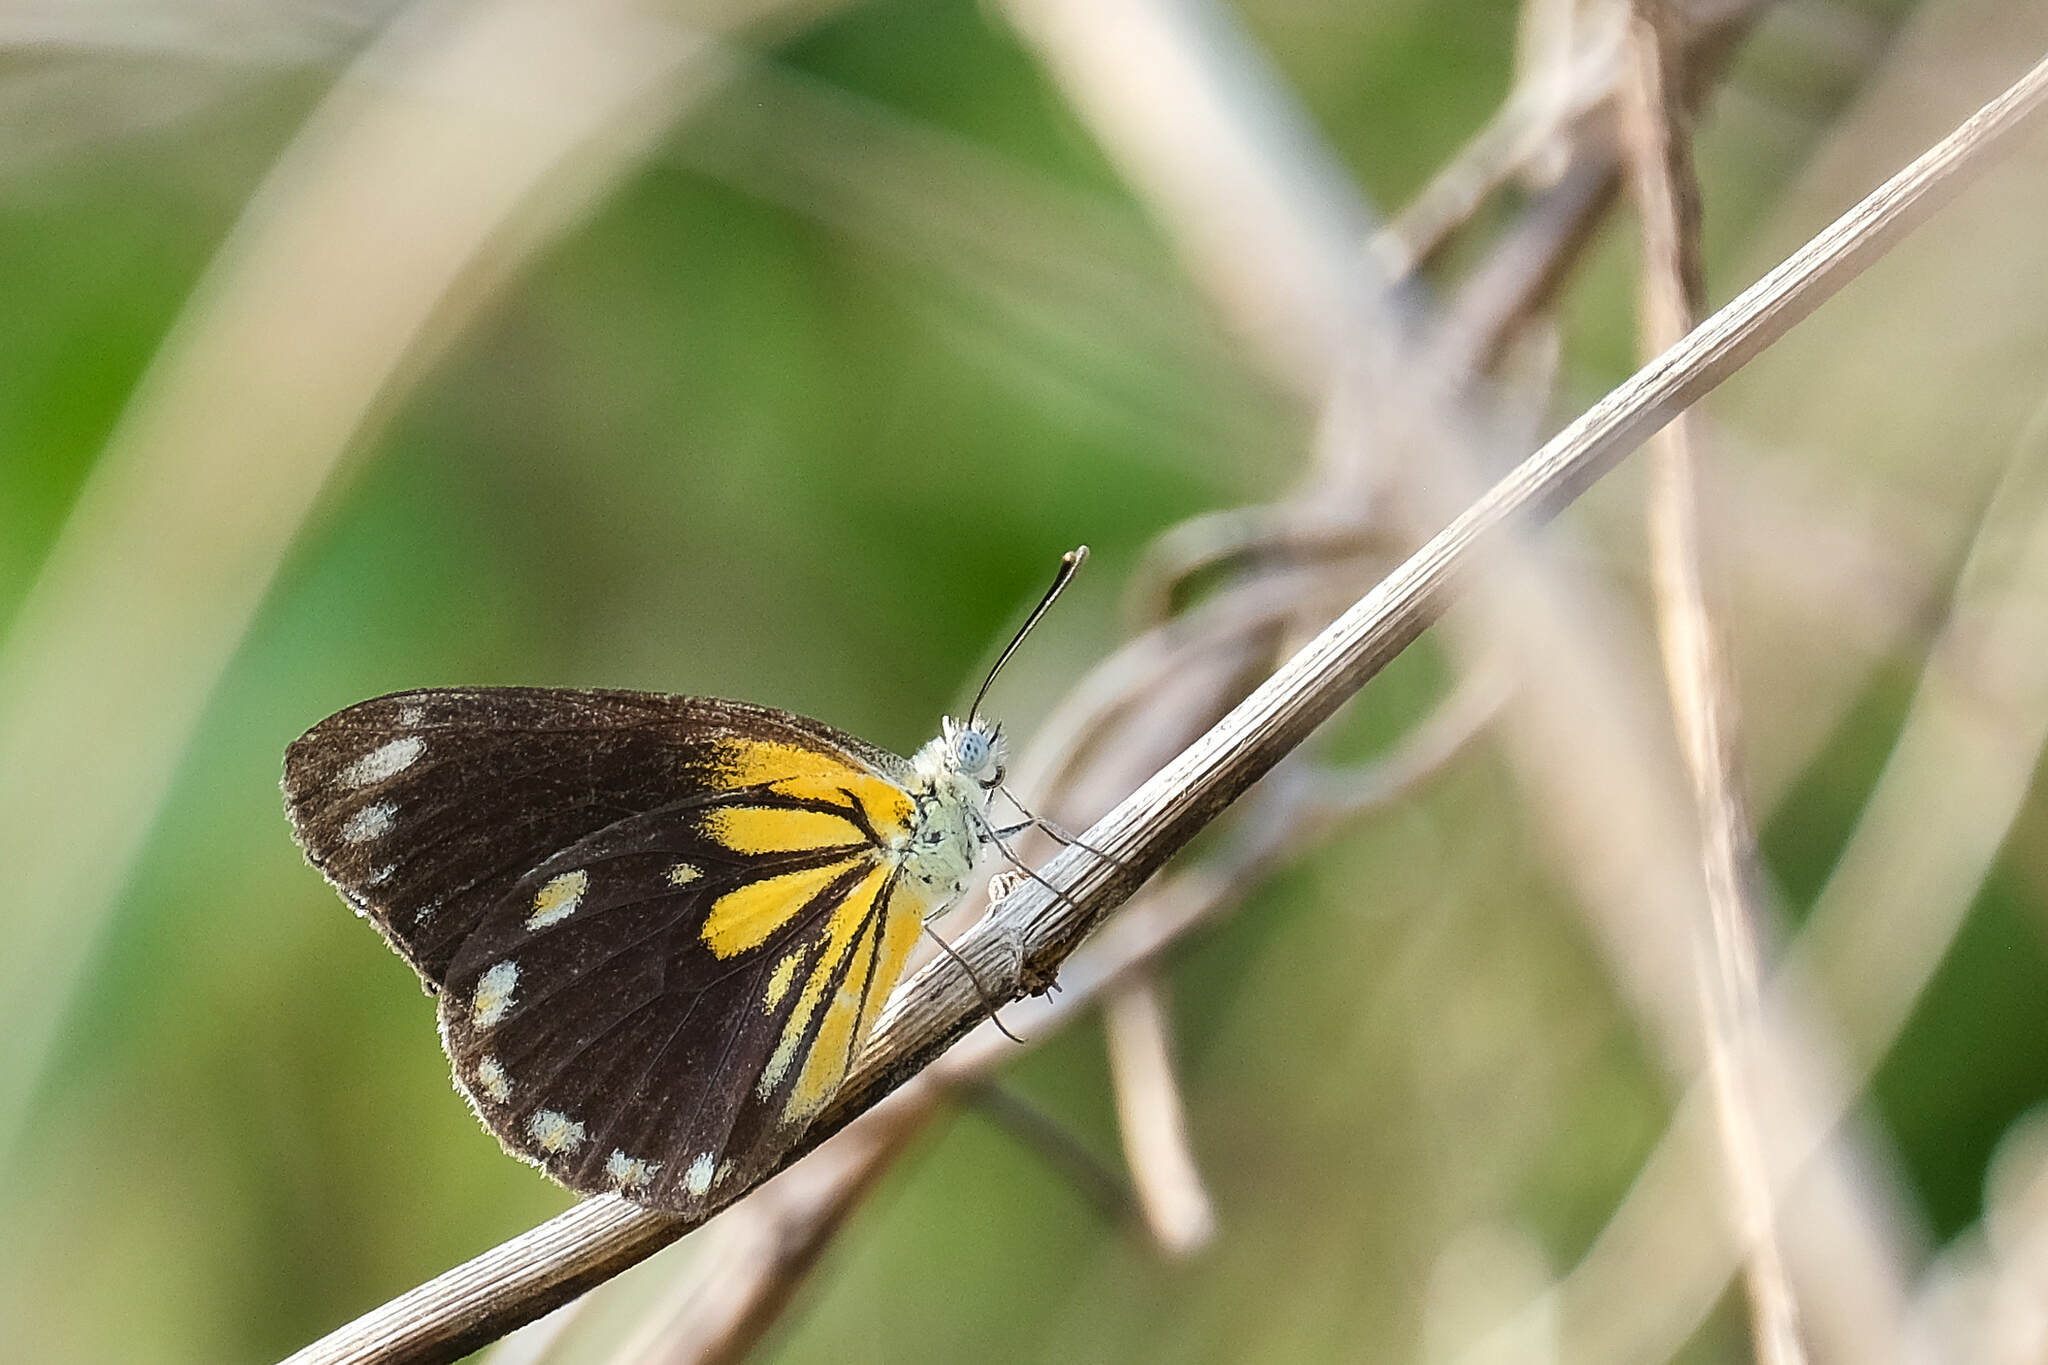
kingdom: Animalia
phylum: Arthropoda
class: Insecta
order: Lepidoptera
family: Pieridae
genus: Belenois
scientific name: Belenois java
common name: Caper white
